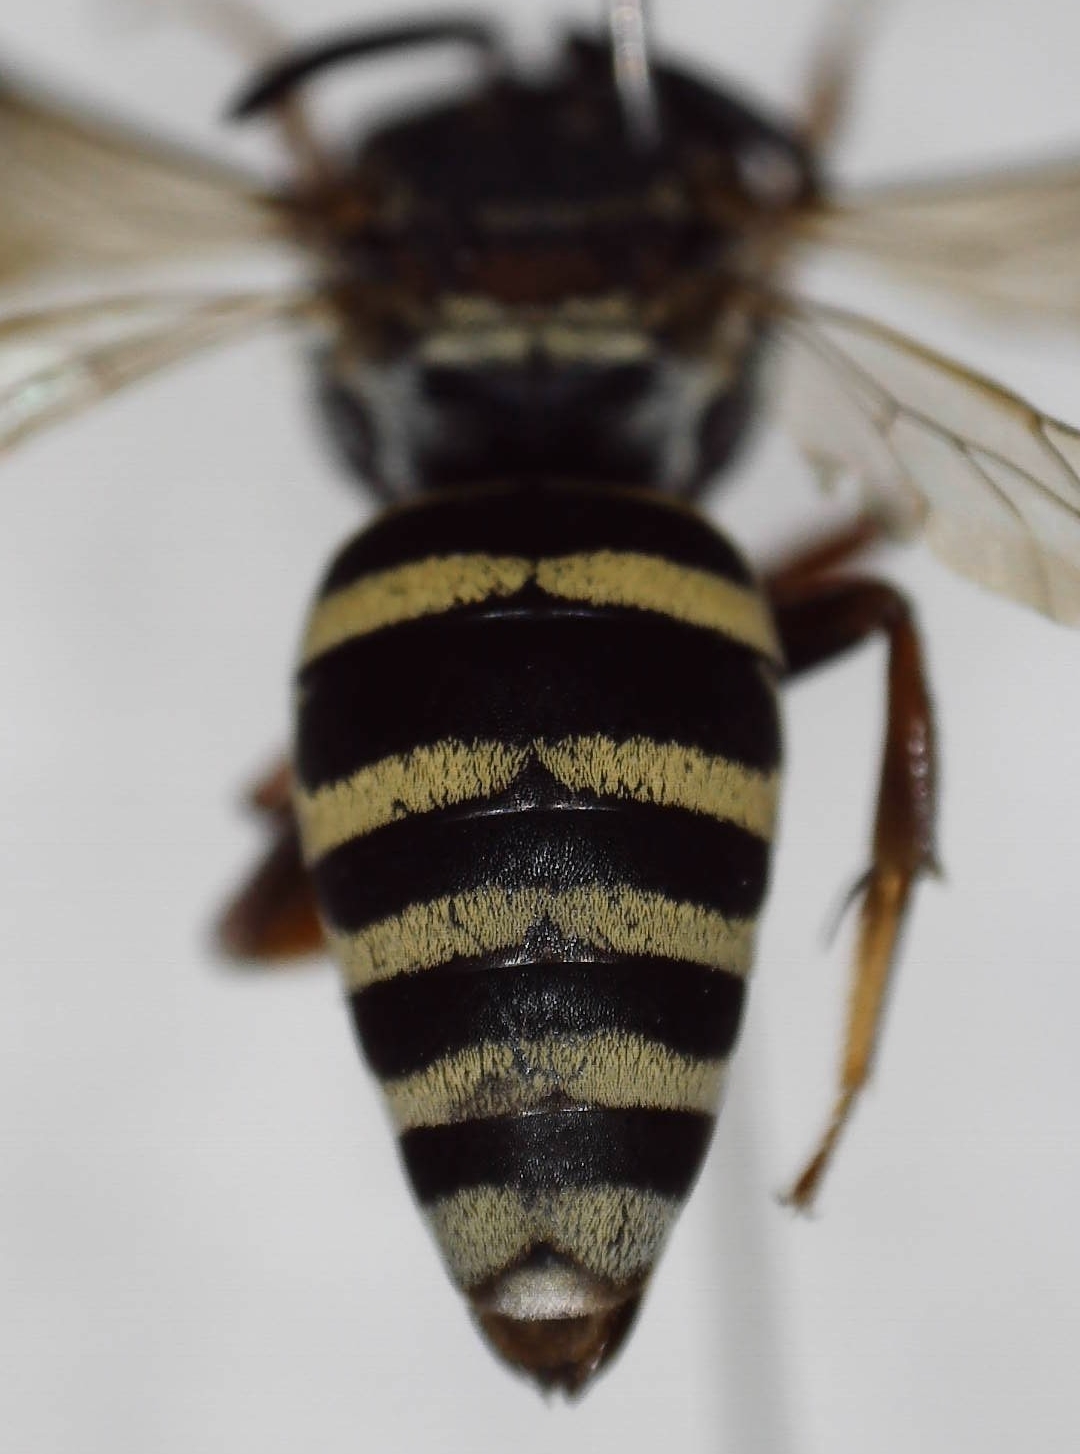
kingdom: Animalia
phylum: Arthropoda
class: Insecta
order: Hymenoptera
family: Apidae
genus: Epeolus
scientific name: Epeolus scutellaris
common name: Notch-backed cellophane-cuckoo bee
